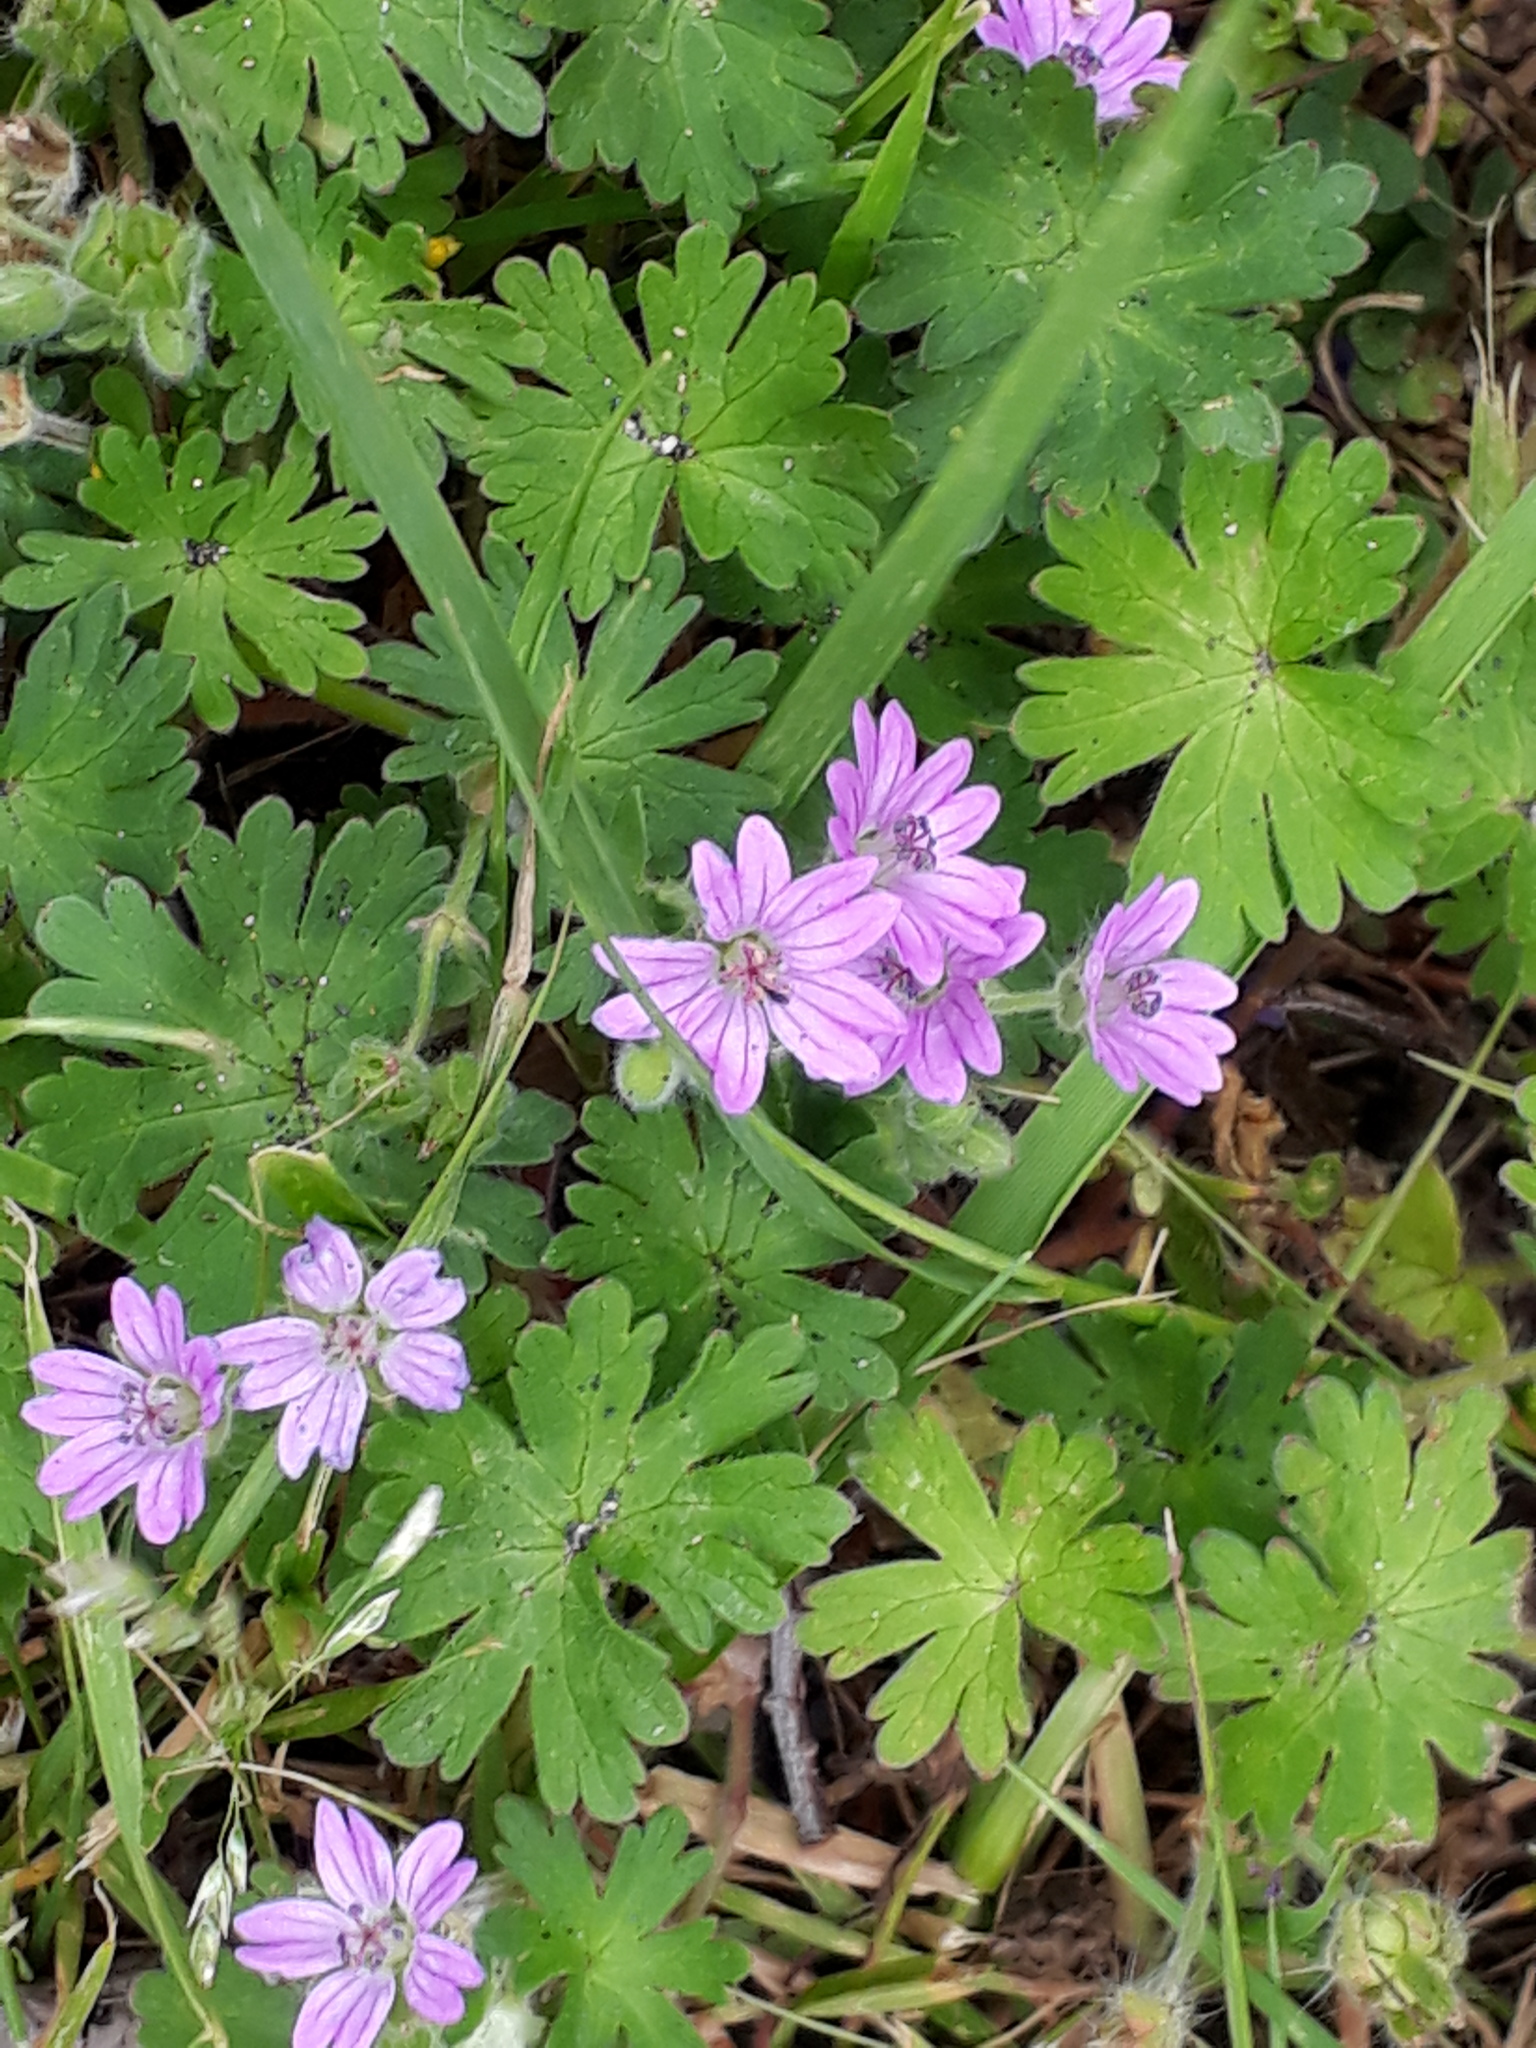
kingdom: Plantae
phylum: Tracheophyta
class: Magnoliopsida
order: Geraniales
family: Geraniaceae
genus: Geranium
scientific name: Geranium molle
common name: Dove's-foot crane's-bill
